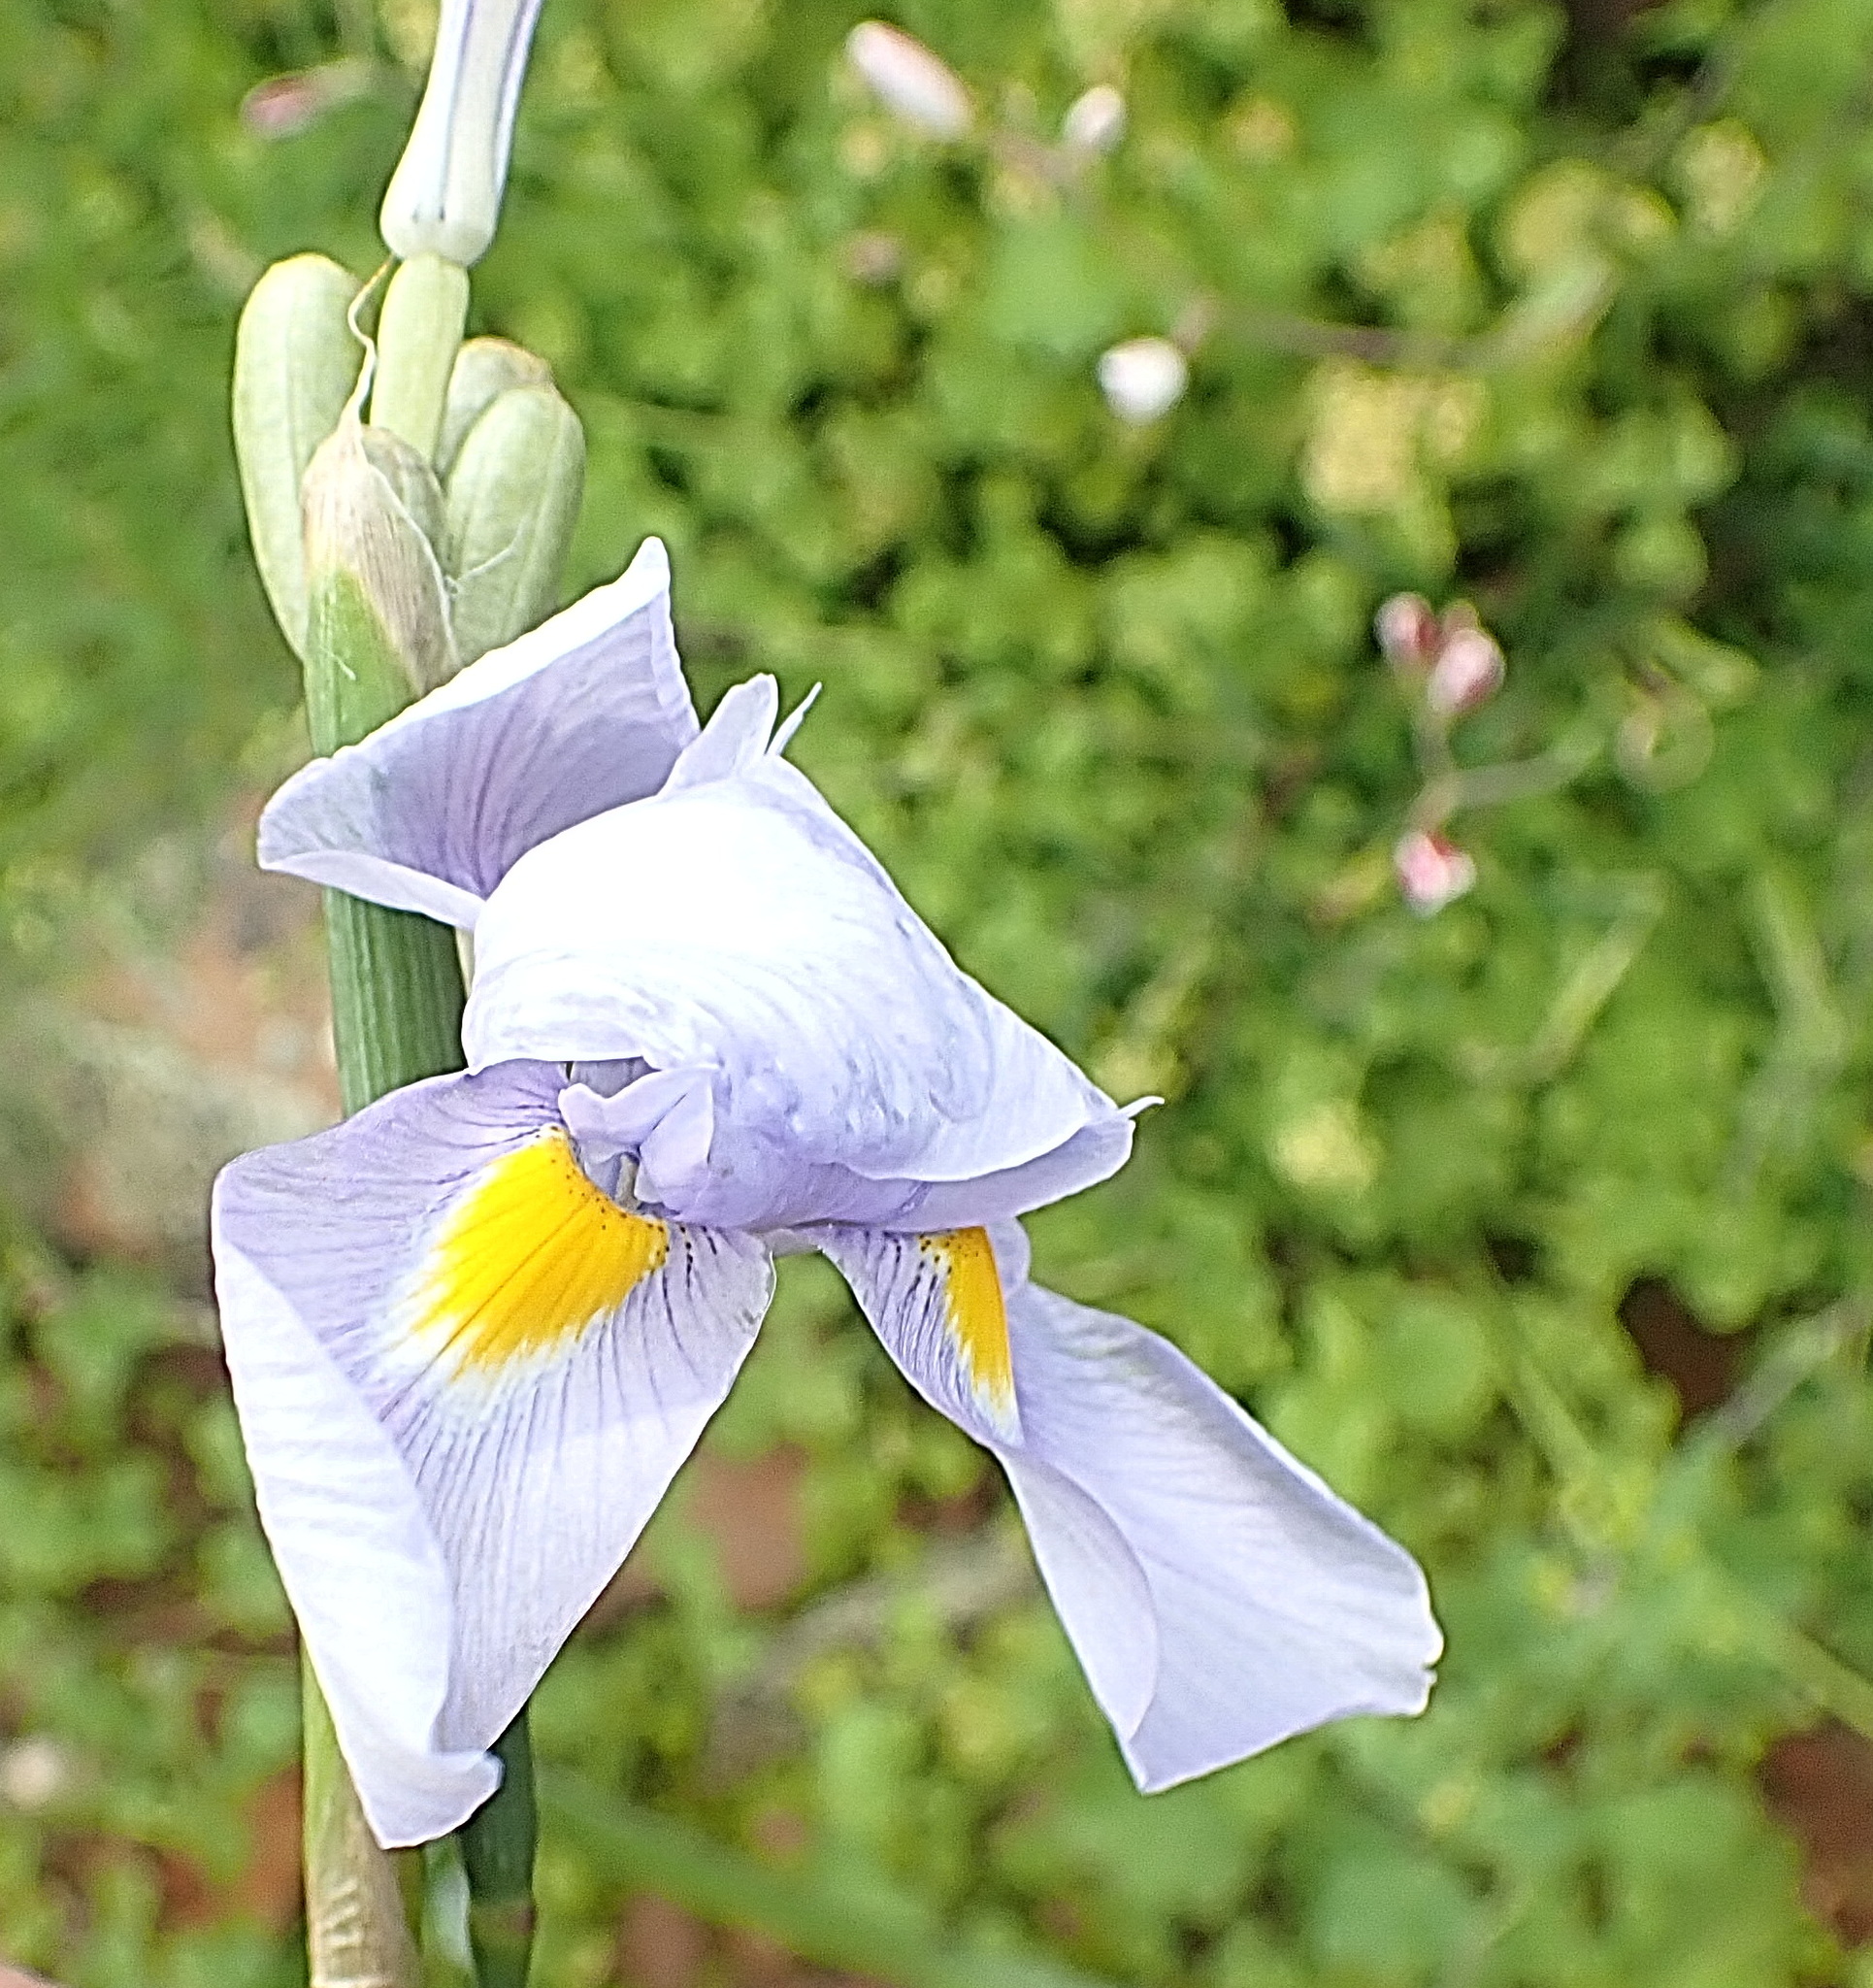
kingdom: Plantae
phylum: Tracheophyta
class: Liliopsida
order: Asparagales
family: Iridaceae
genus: Moraea
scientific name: Moraea polystachya
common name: Blue-tulip
